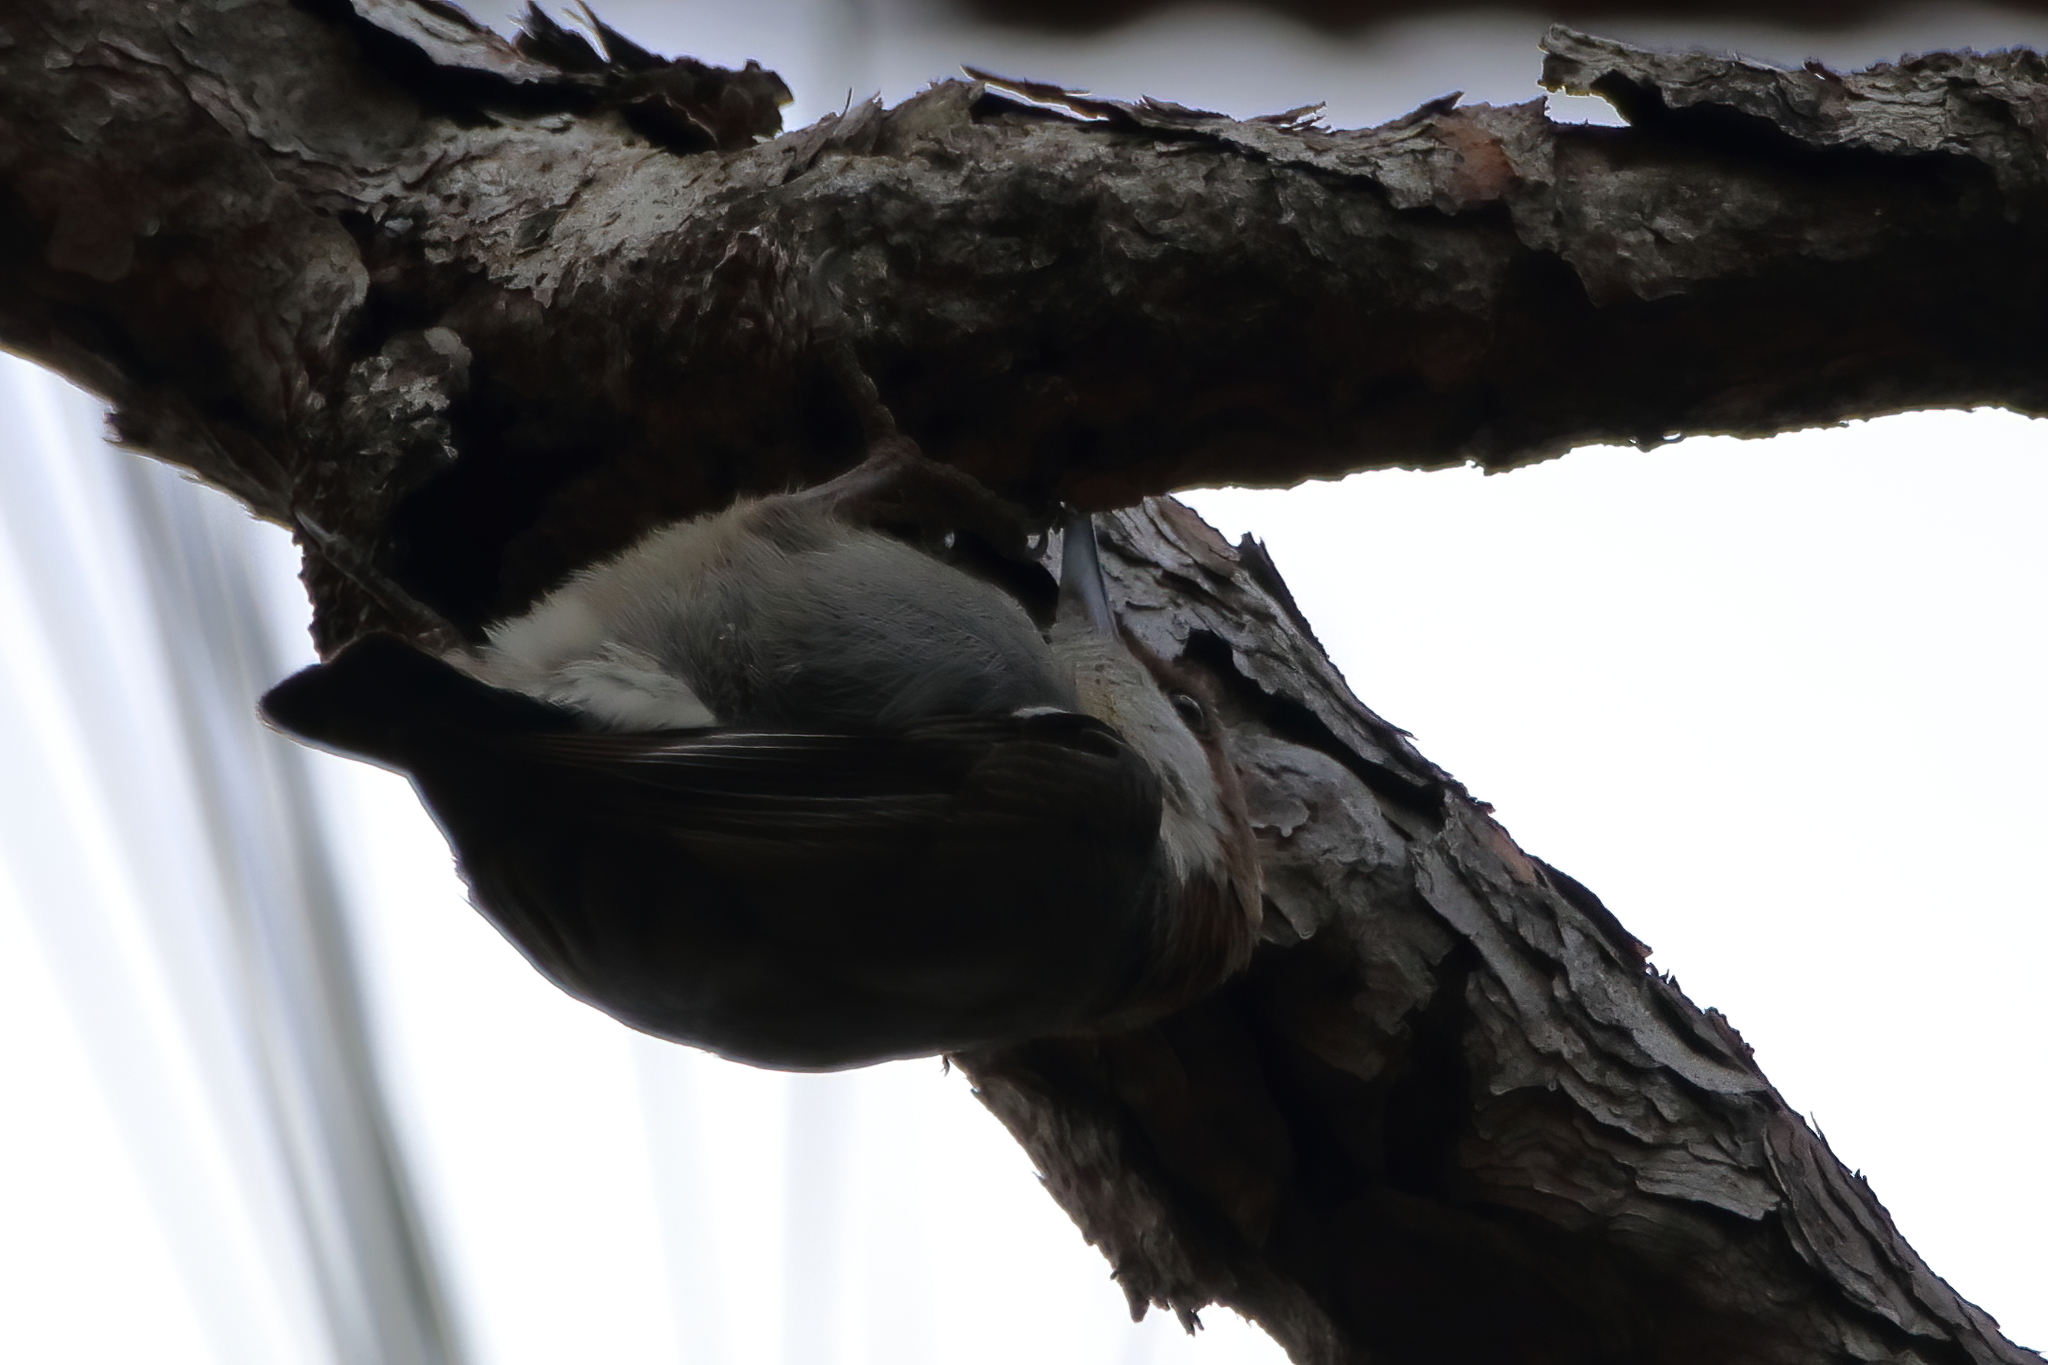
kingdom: Animalia
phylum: Chordata
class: Aves
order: Passeriformes
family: Sittidae
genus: Sitta
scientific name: Sitta pusilla
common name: Brown-headed nuthatch
